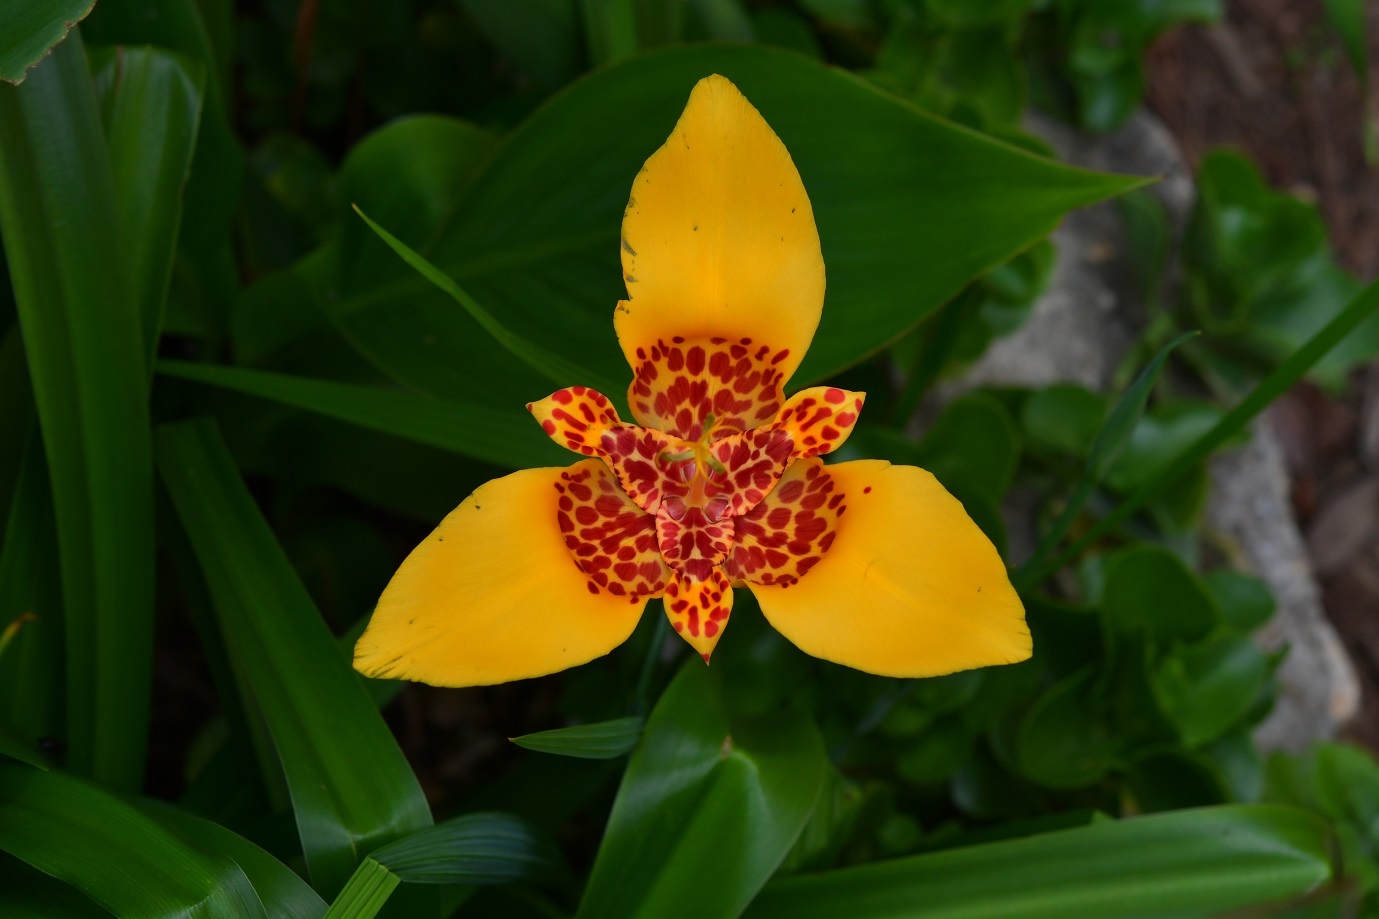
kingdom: Plantae
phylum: Tracheophyta
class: Liliopsida
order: Asparagales
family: Iridaceae
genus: Tigridia
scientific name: Tigridia pavonia
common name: Peacock-flower
